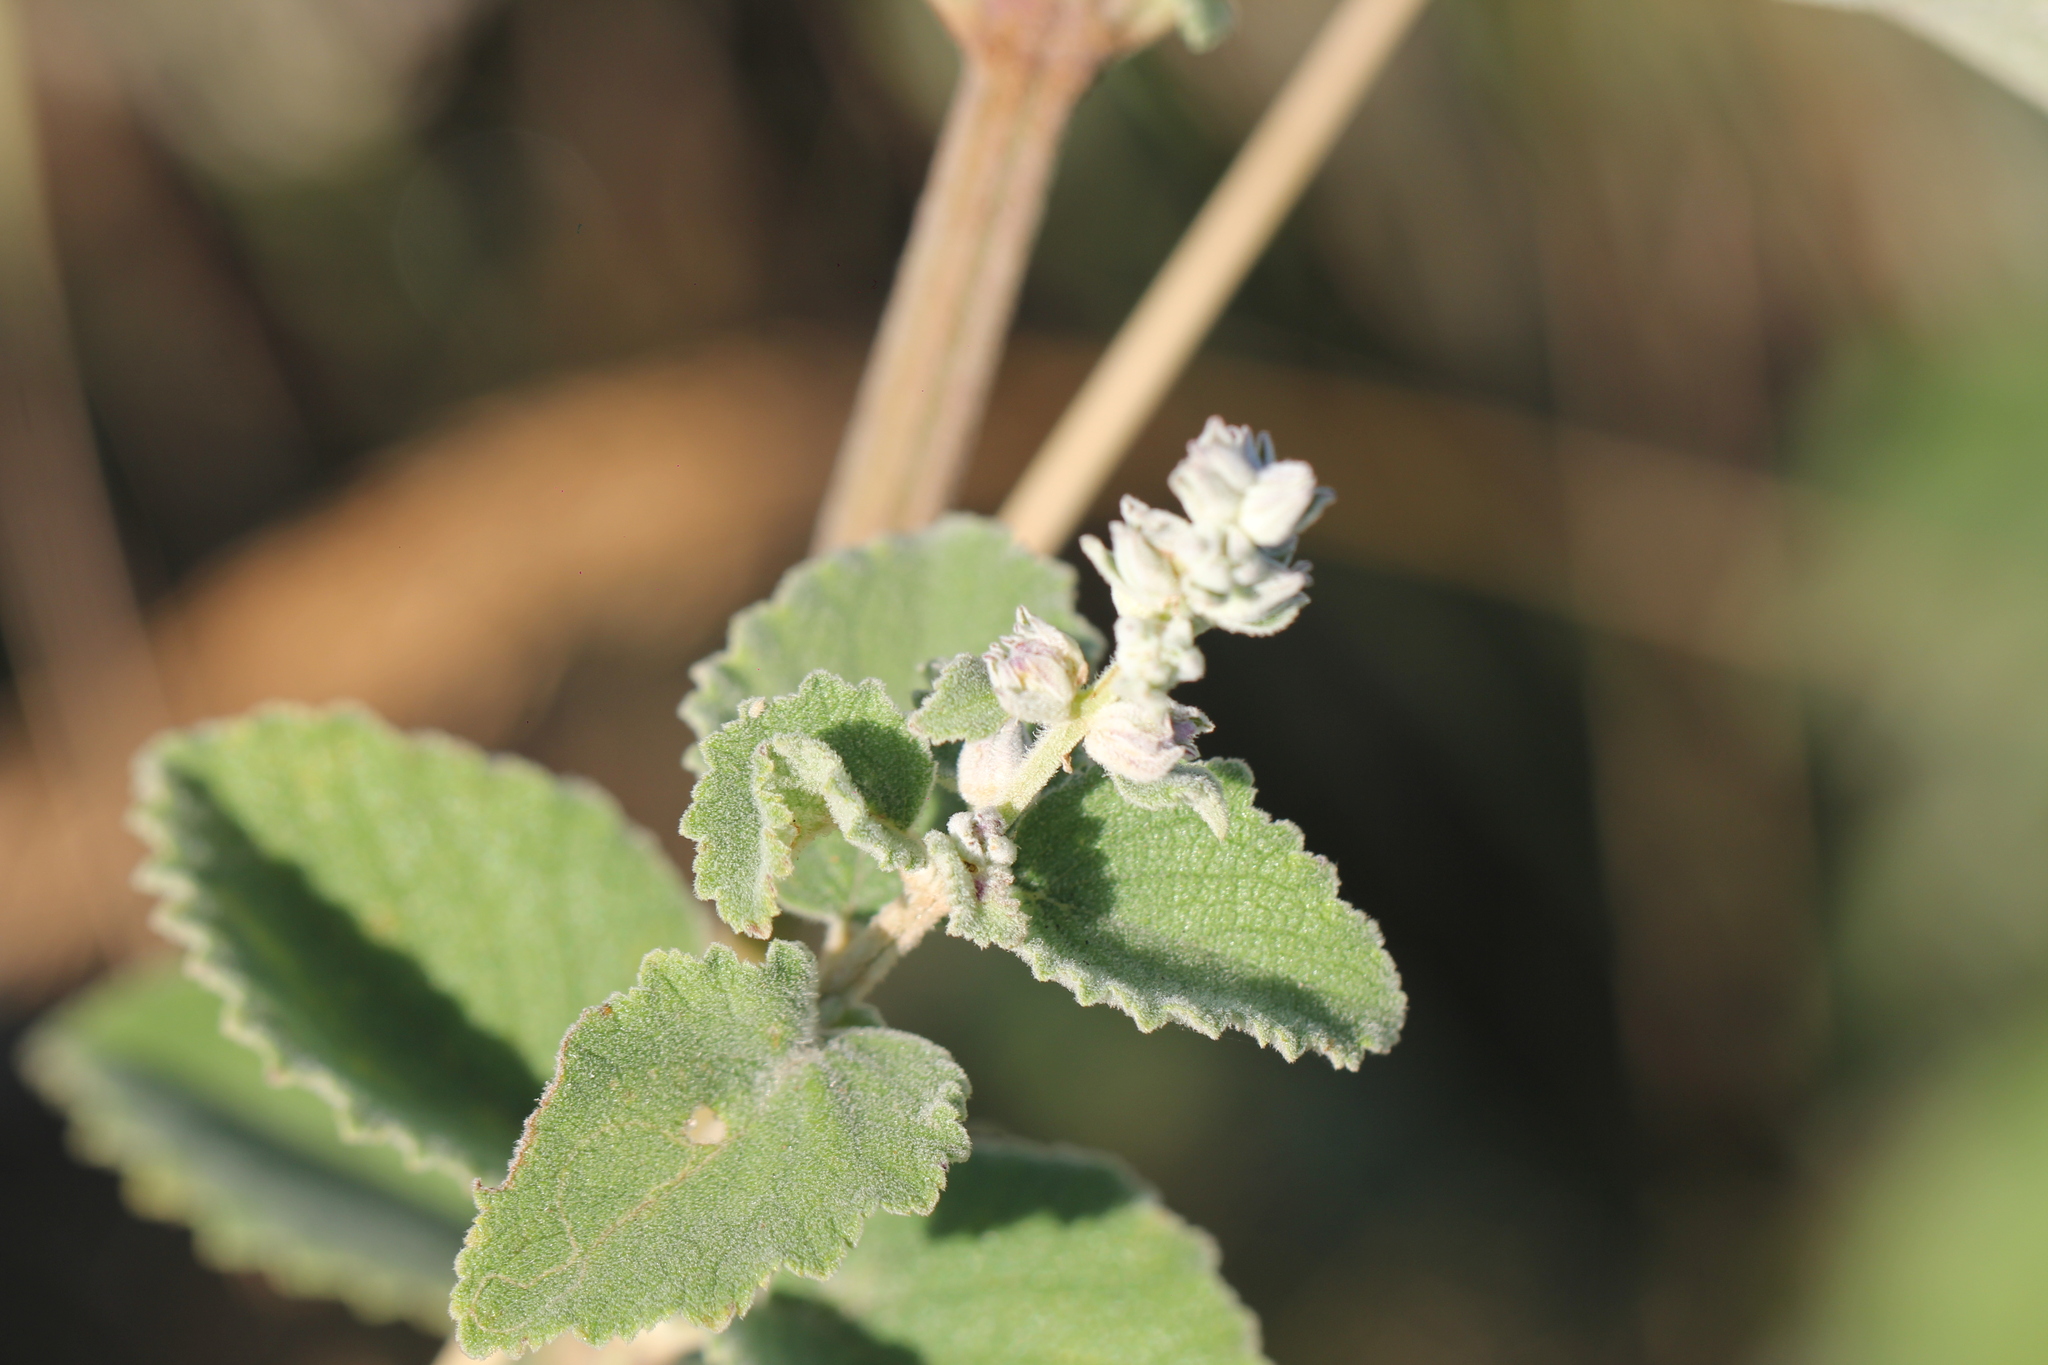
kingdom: Plantae
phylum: Tracheophyta
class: Magnoliopsida
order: Lamiales
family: Lamiaceae
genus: Cantinoa
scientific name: Cantinoa althaeifolia
